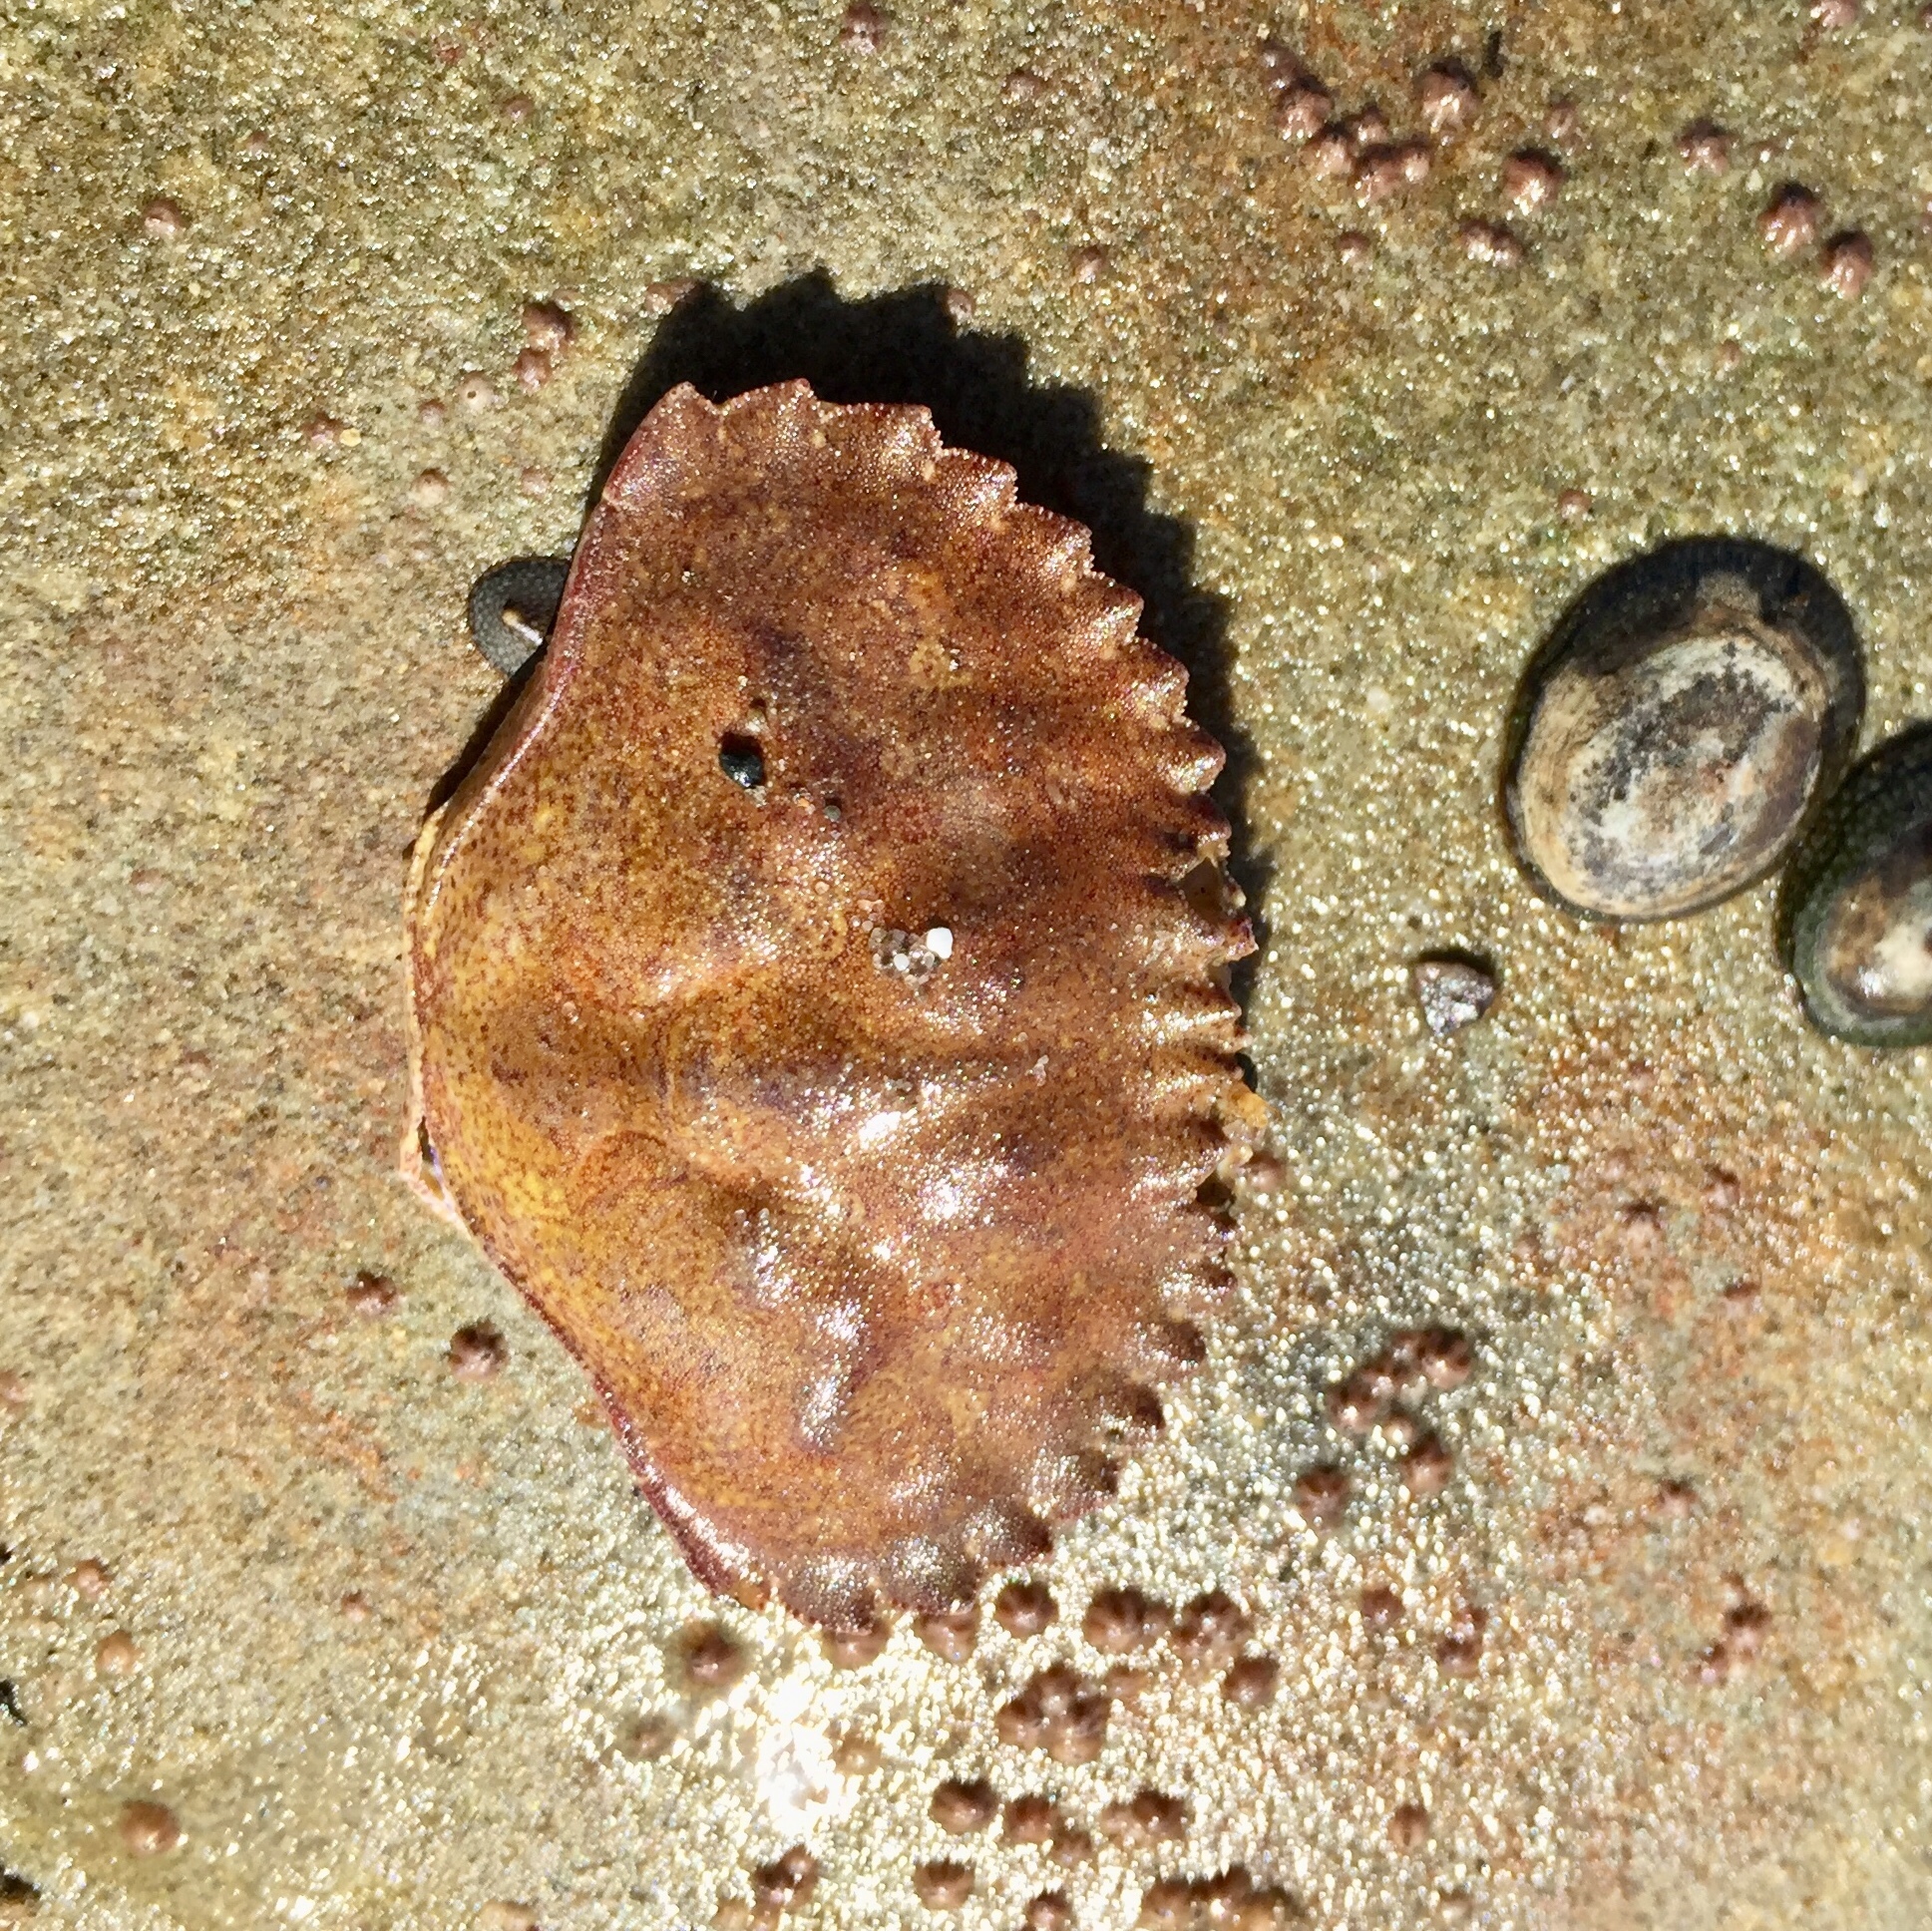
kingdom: Animalia
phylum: Arthropoda
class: Malacostraca
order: Decapoda
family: Cancridae
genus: Metacarcinus
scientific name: Metacarcinus anthonyi
